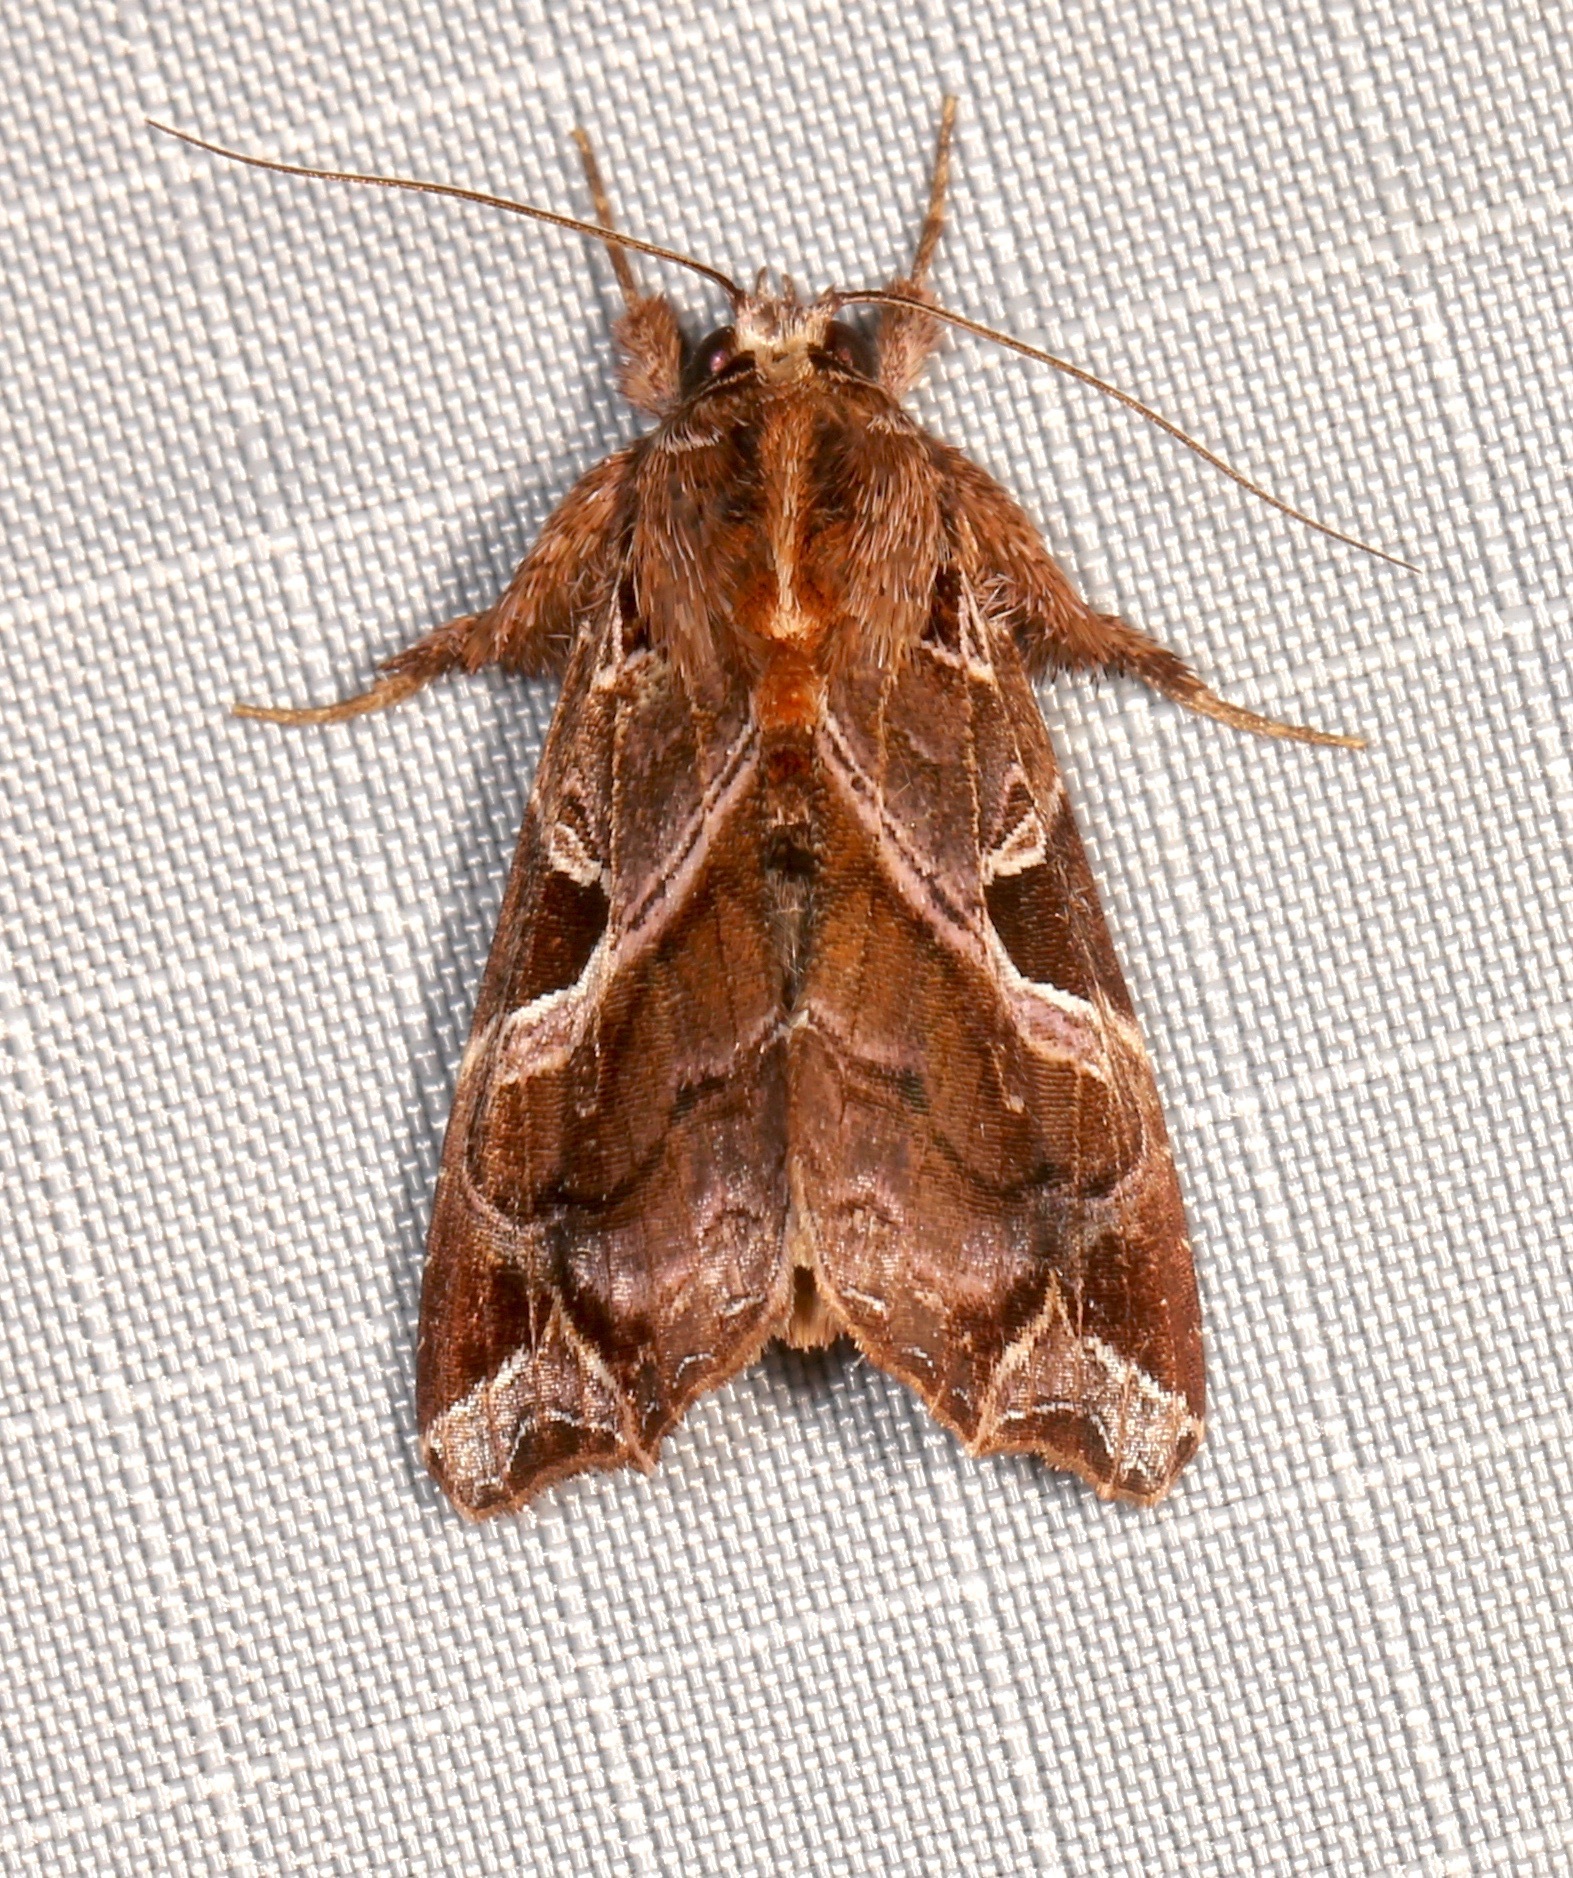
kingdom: Animalia
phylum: Arthropoda
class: Insecta
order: Lepidoptera
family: Noctuidae
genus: Callopistria
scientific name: Callopistria floridensis
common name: Florida fern moth
